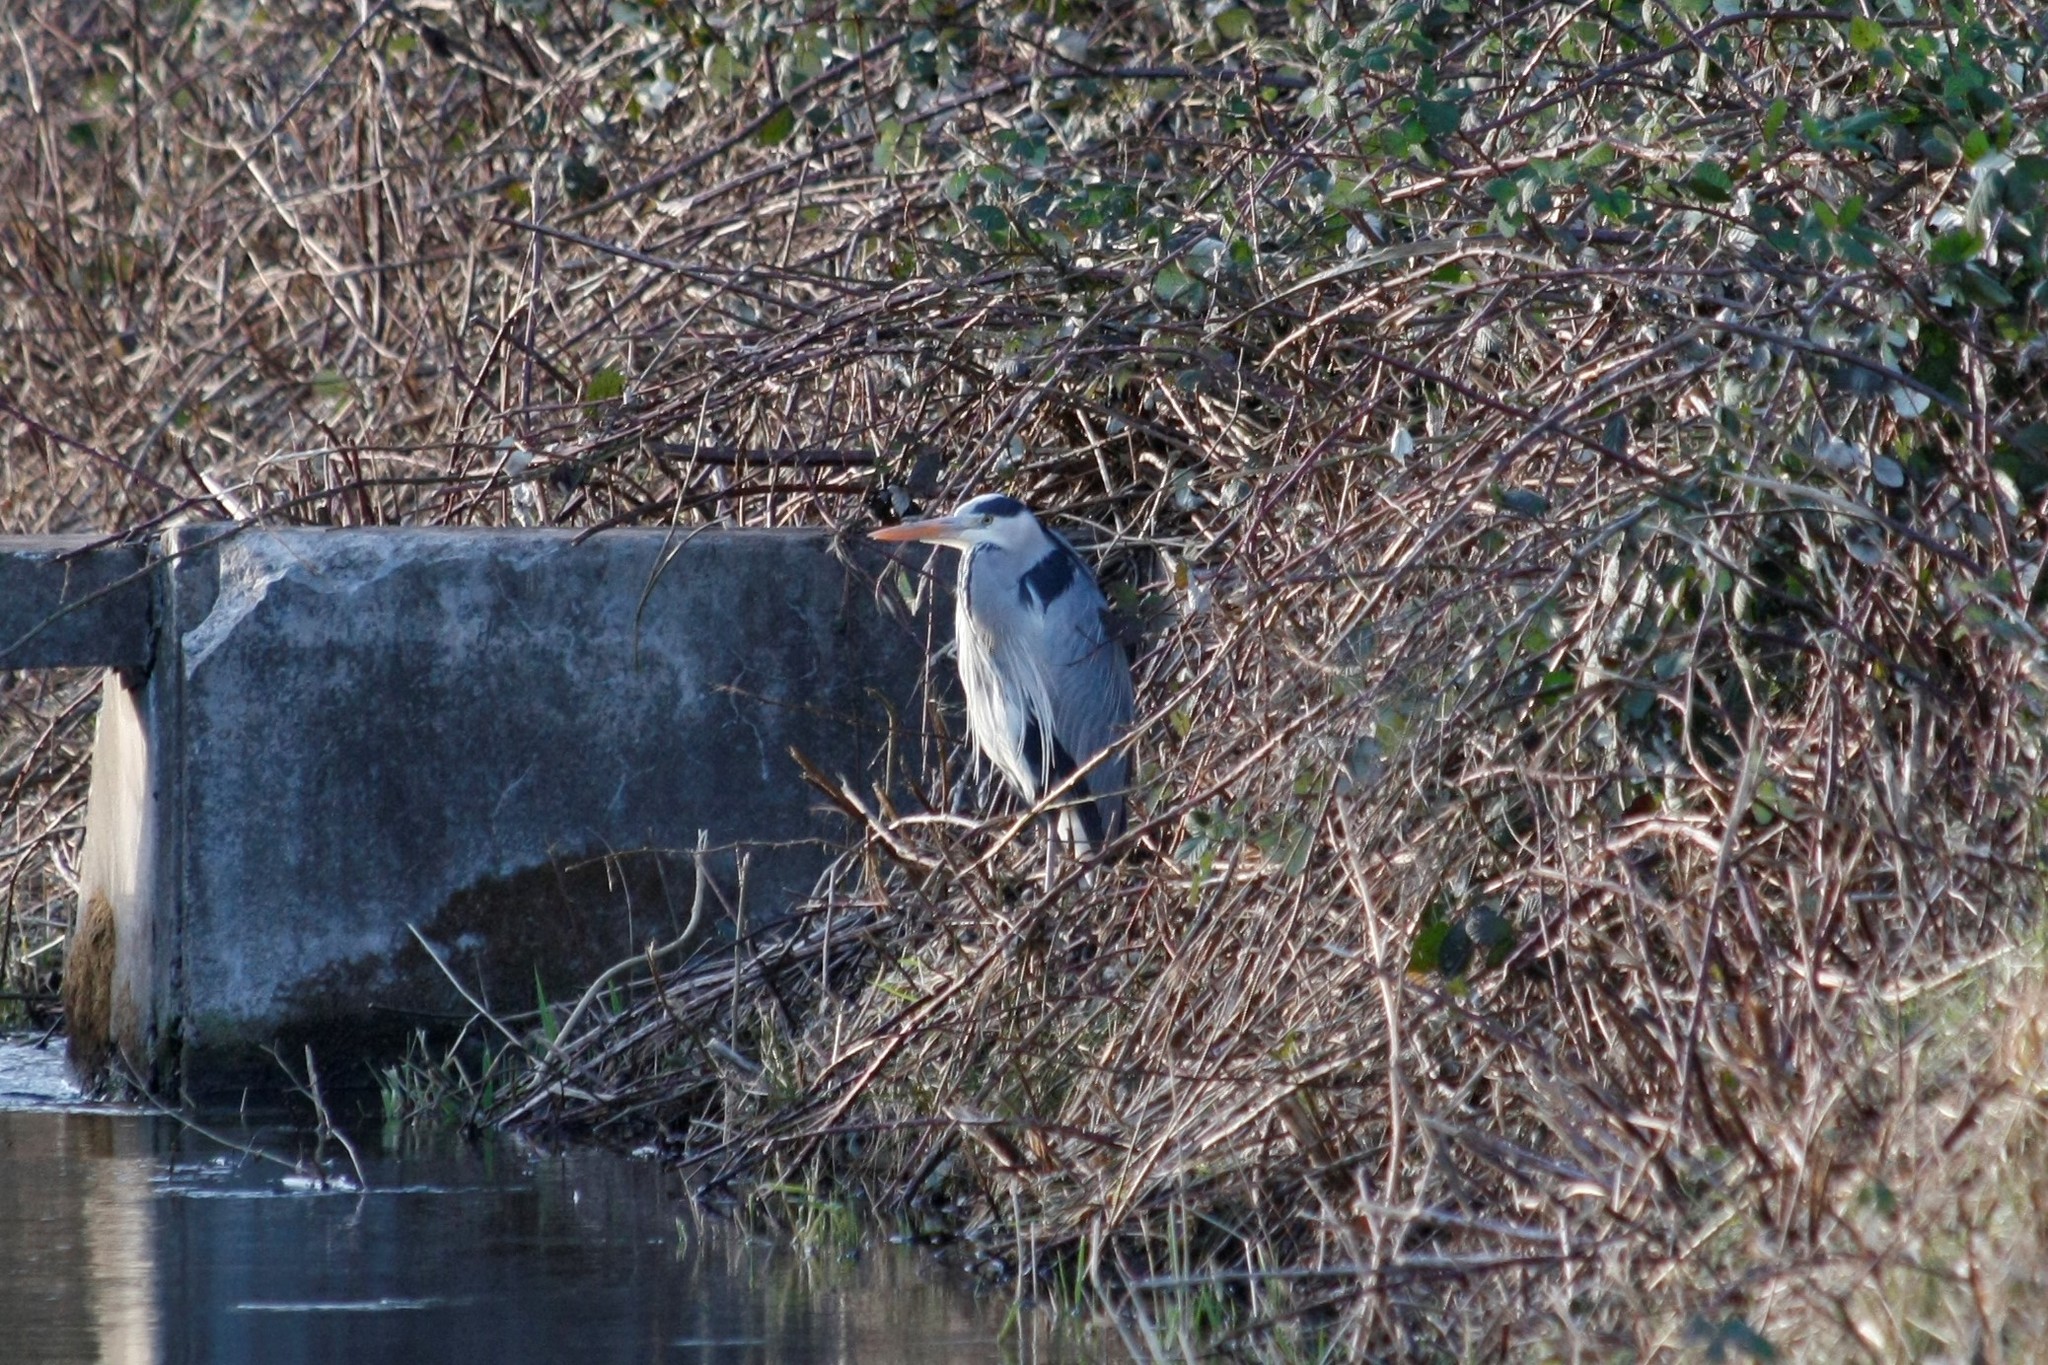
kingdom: Animalia
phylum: Chordata
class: Aves
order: Pelecaniformes
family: Ardeidae
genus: Ardea
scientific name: Ardea cinerea
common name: Grey heron
